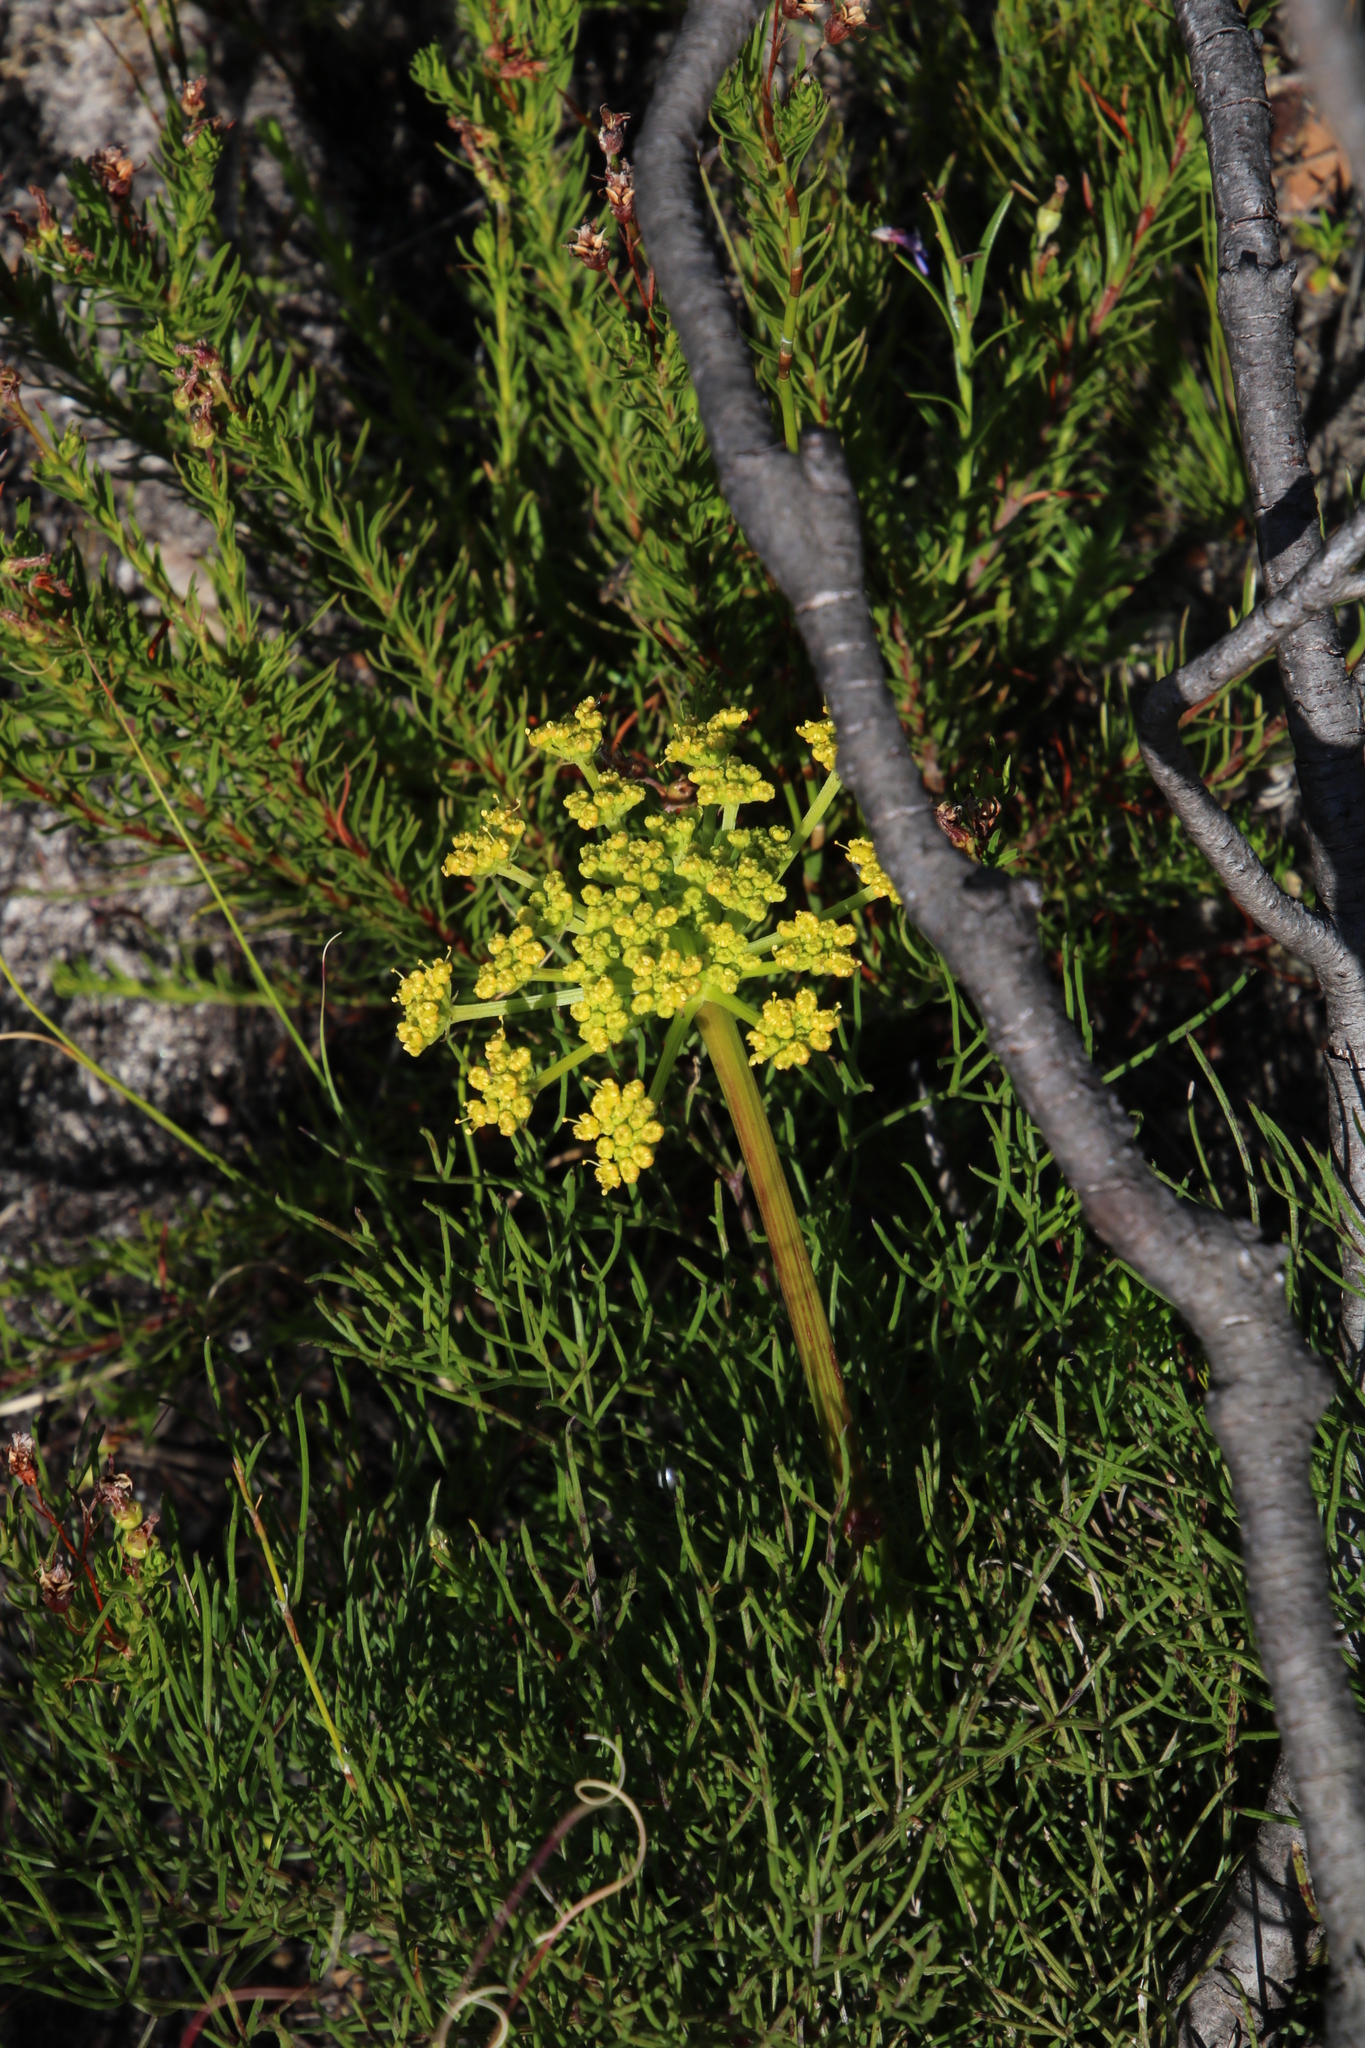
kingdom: Plantae
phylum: Tracheophyta
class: Magnoliopsida
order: Apiales
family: Apiaceae
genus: Nanobubon
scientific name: Nanobubon strictum
